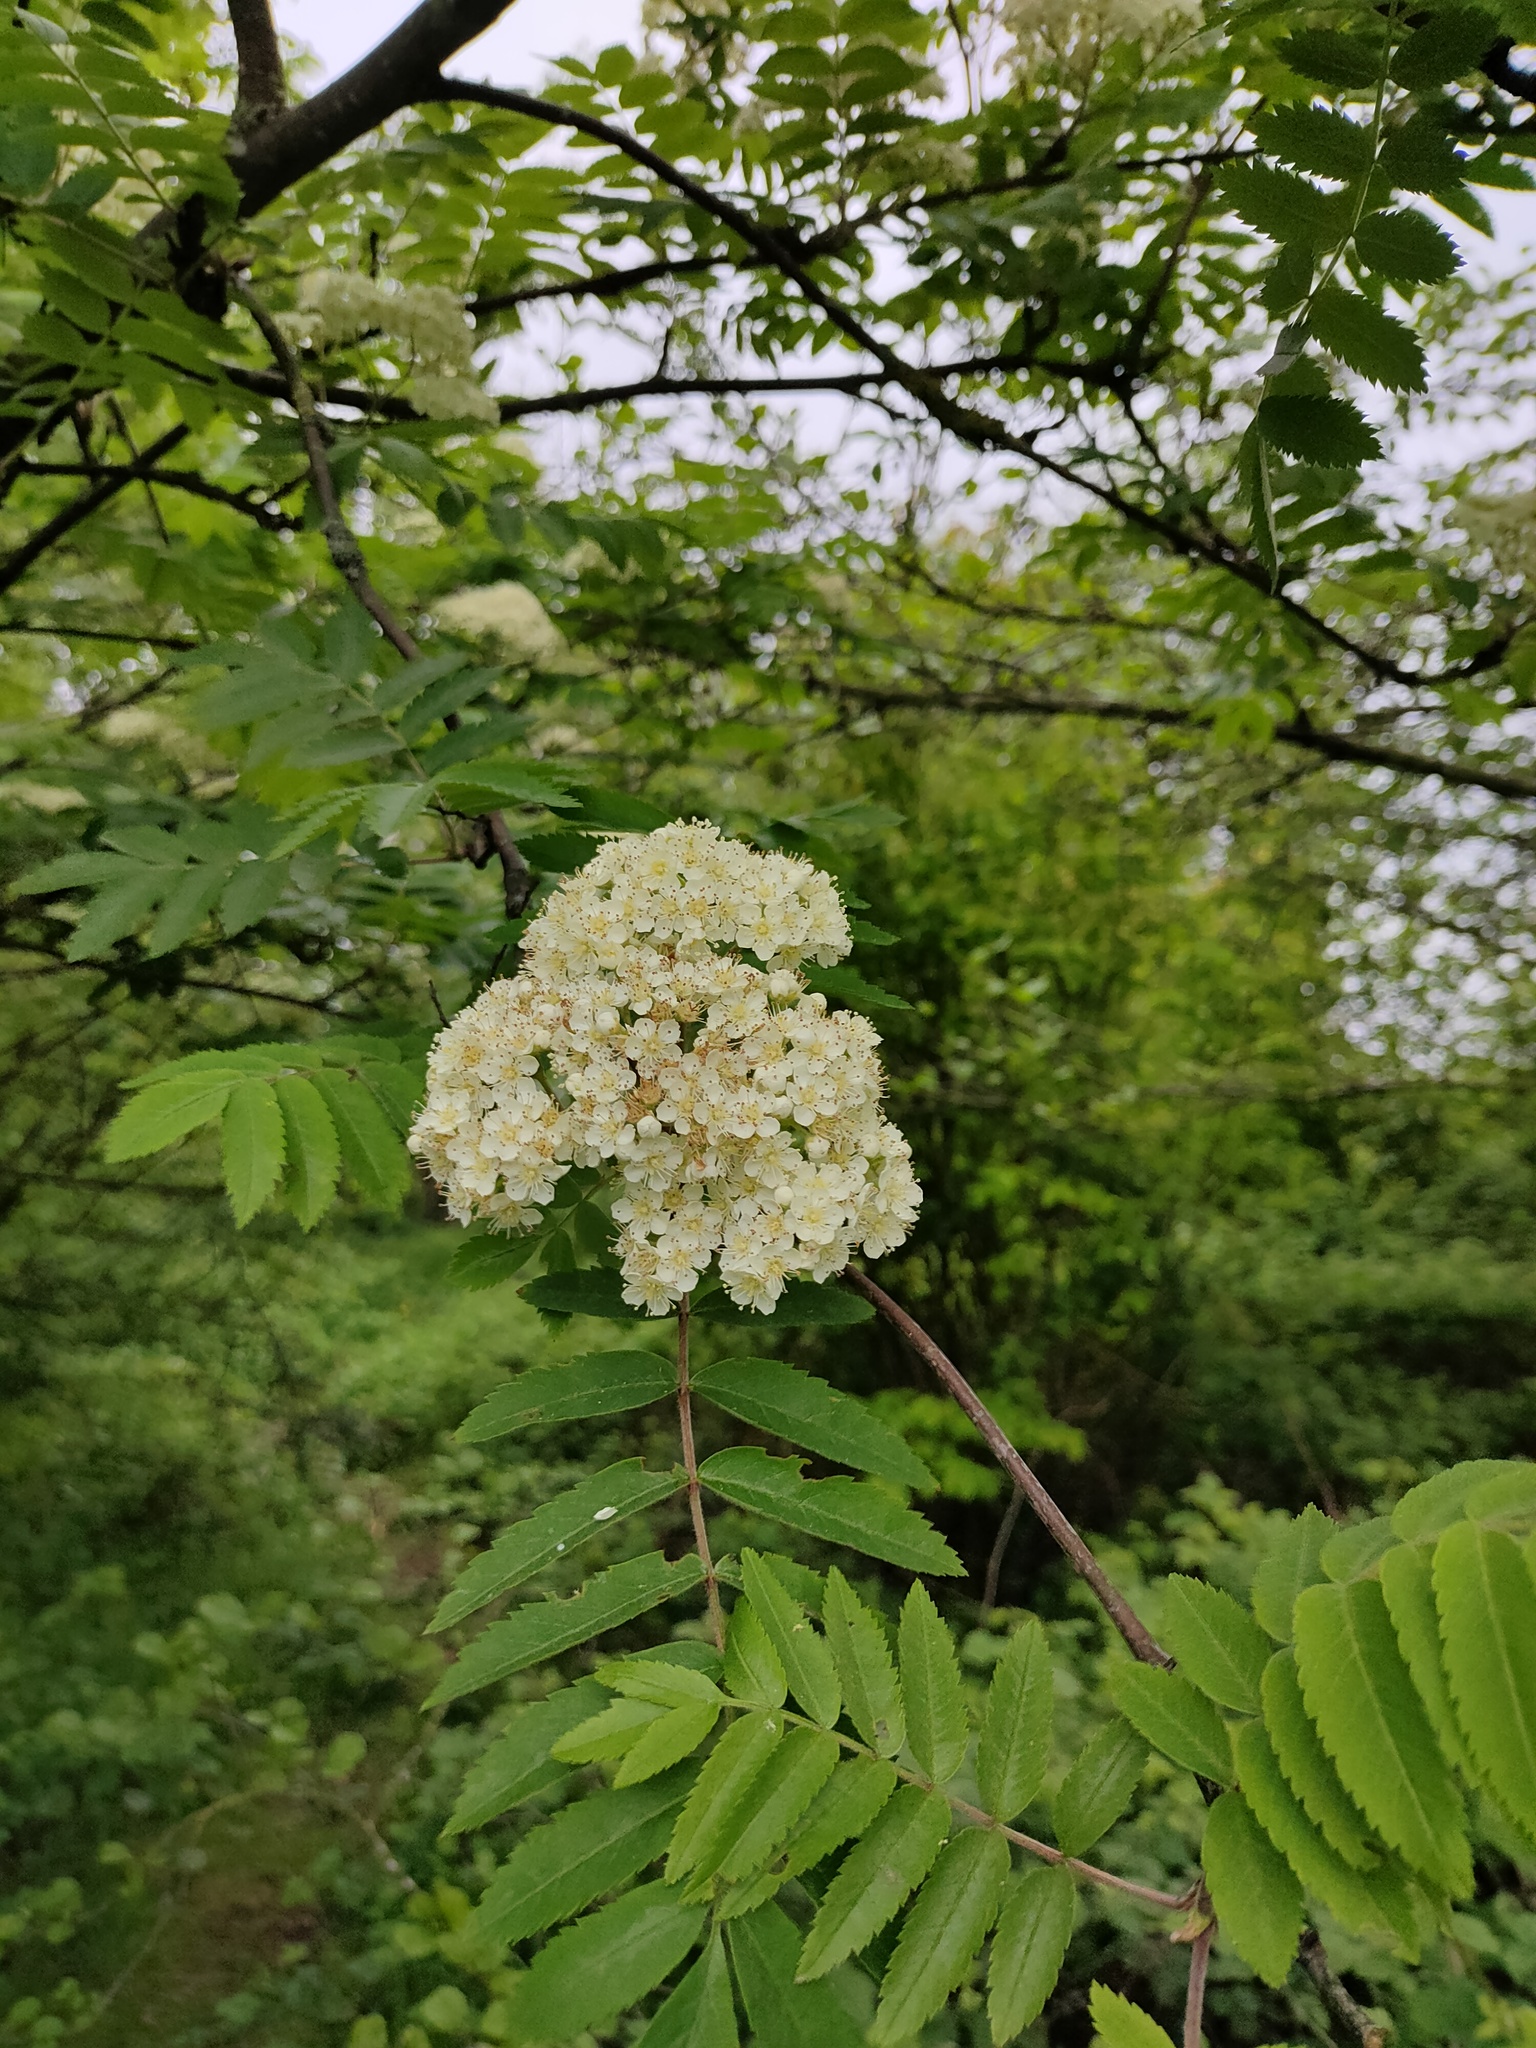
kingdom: Plantae
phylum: Tracheophyta
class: Magnoliopsida
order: Rosales
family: Rosaceae
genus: Sorbus
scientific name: Sorbus aucuparia
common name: Rowan
